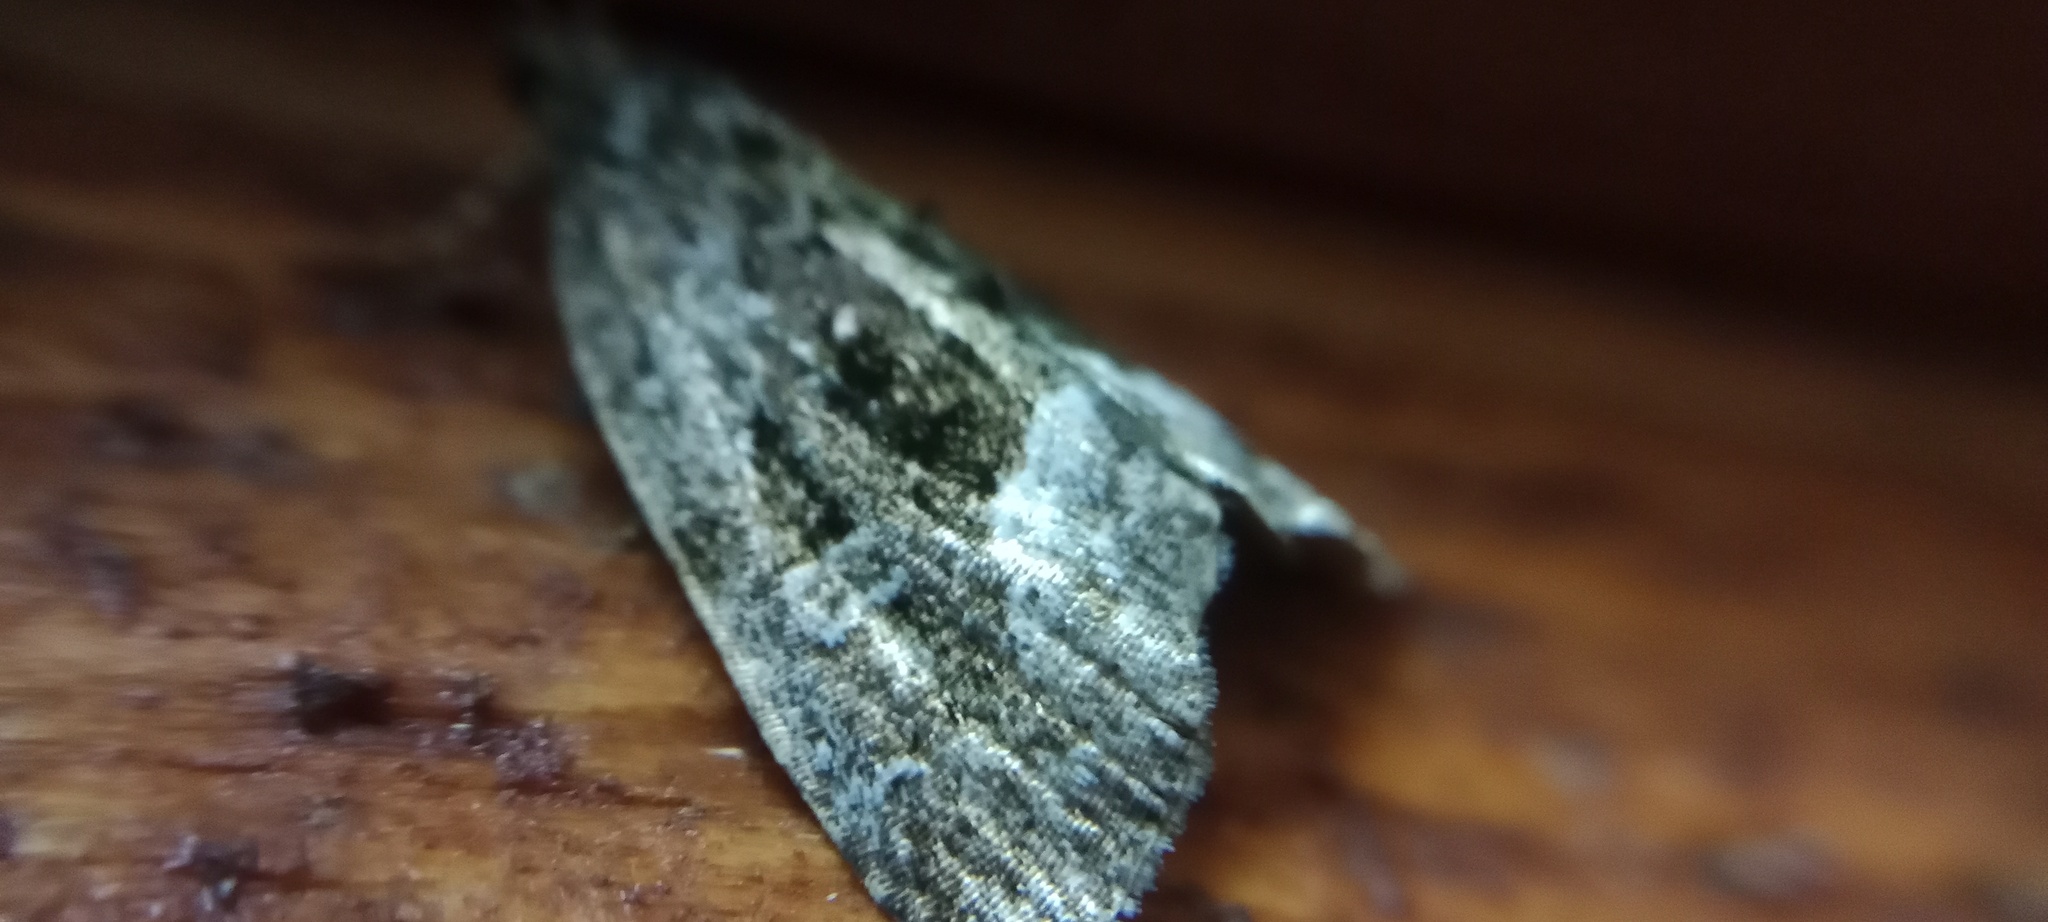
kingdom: Animalia
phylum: Arthropoda
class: Insecta
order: Lepidoptera
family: Noctuidae
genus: Deltote
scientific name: Deltote pygarga
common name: Marbled white spot
